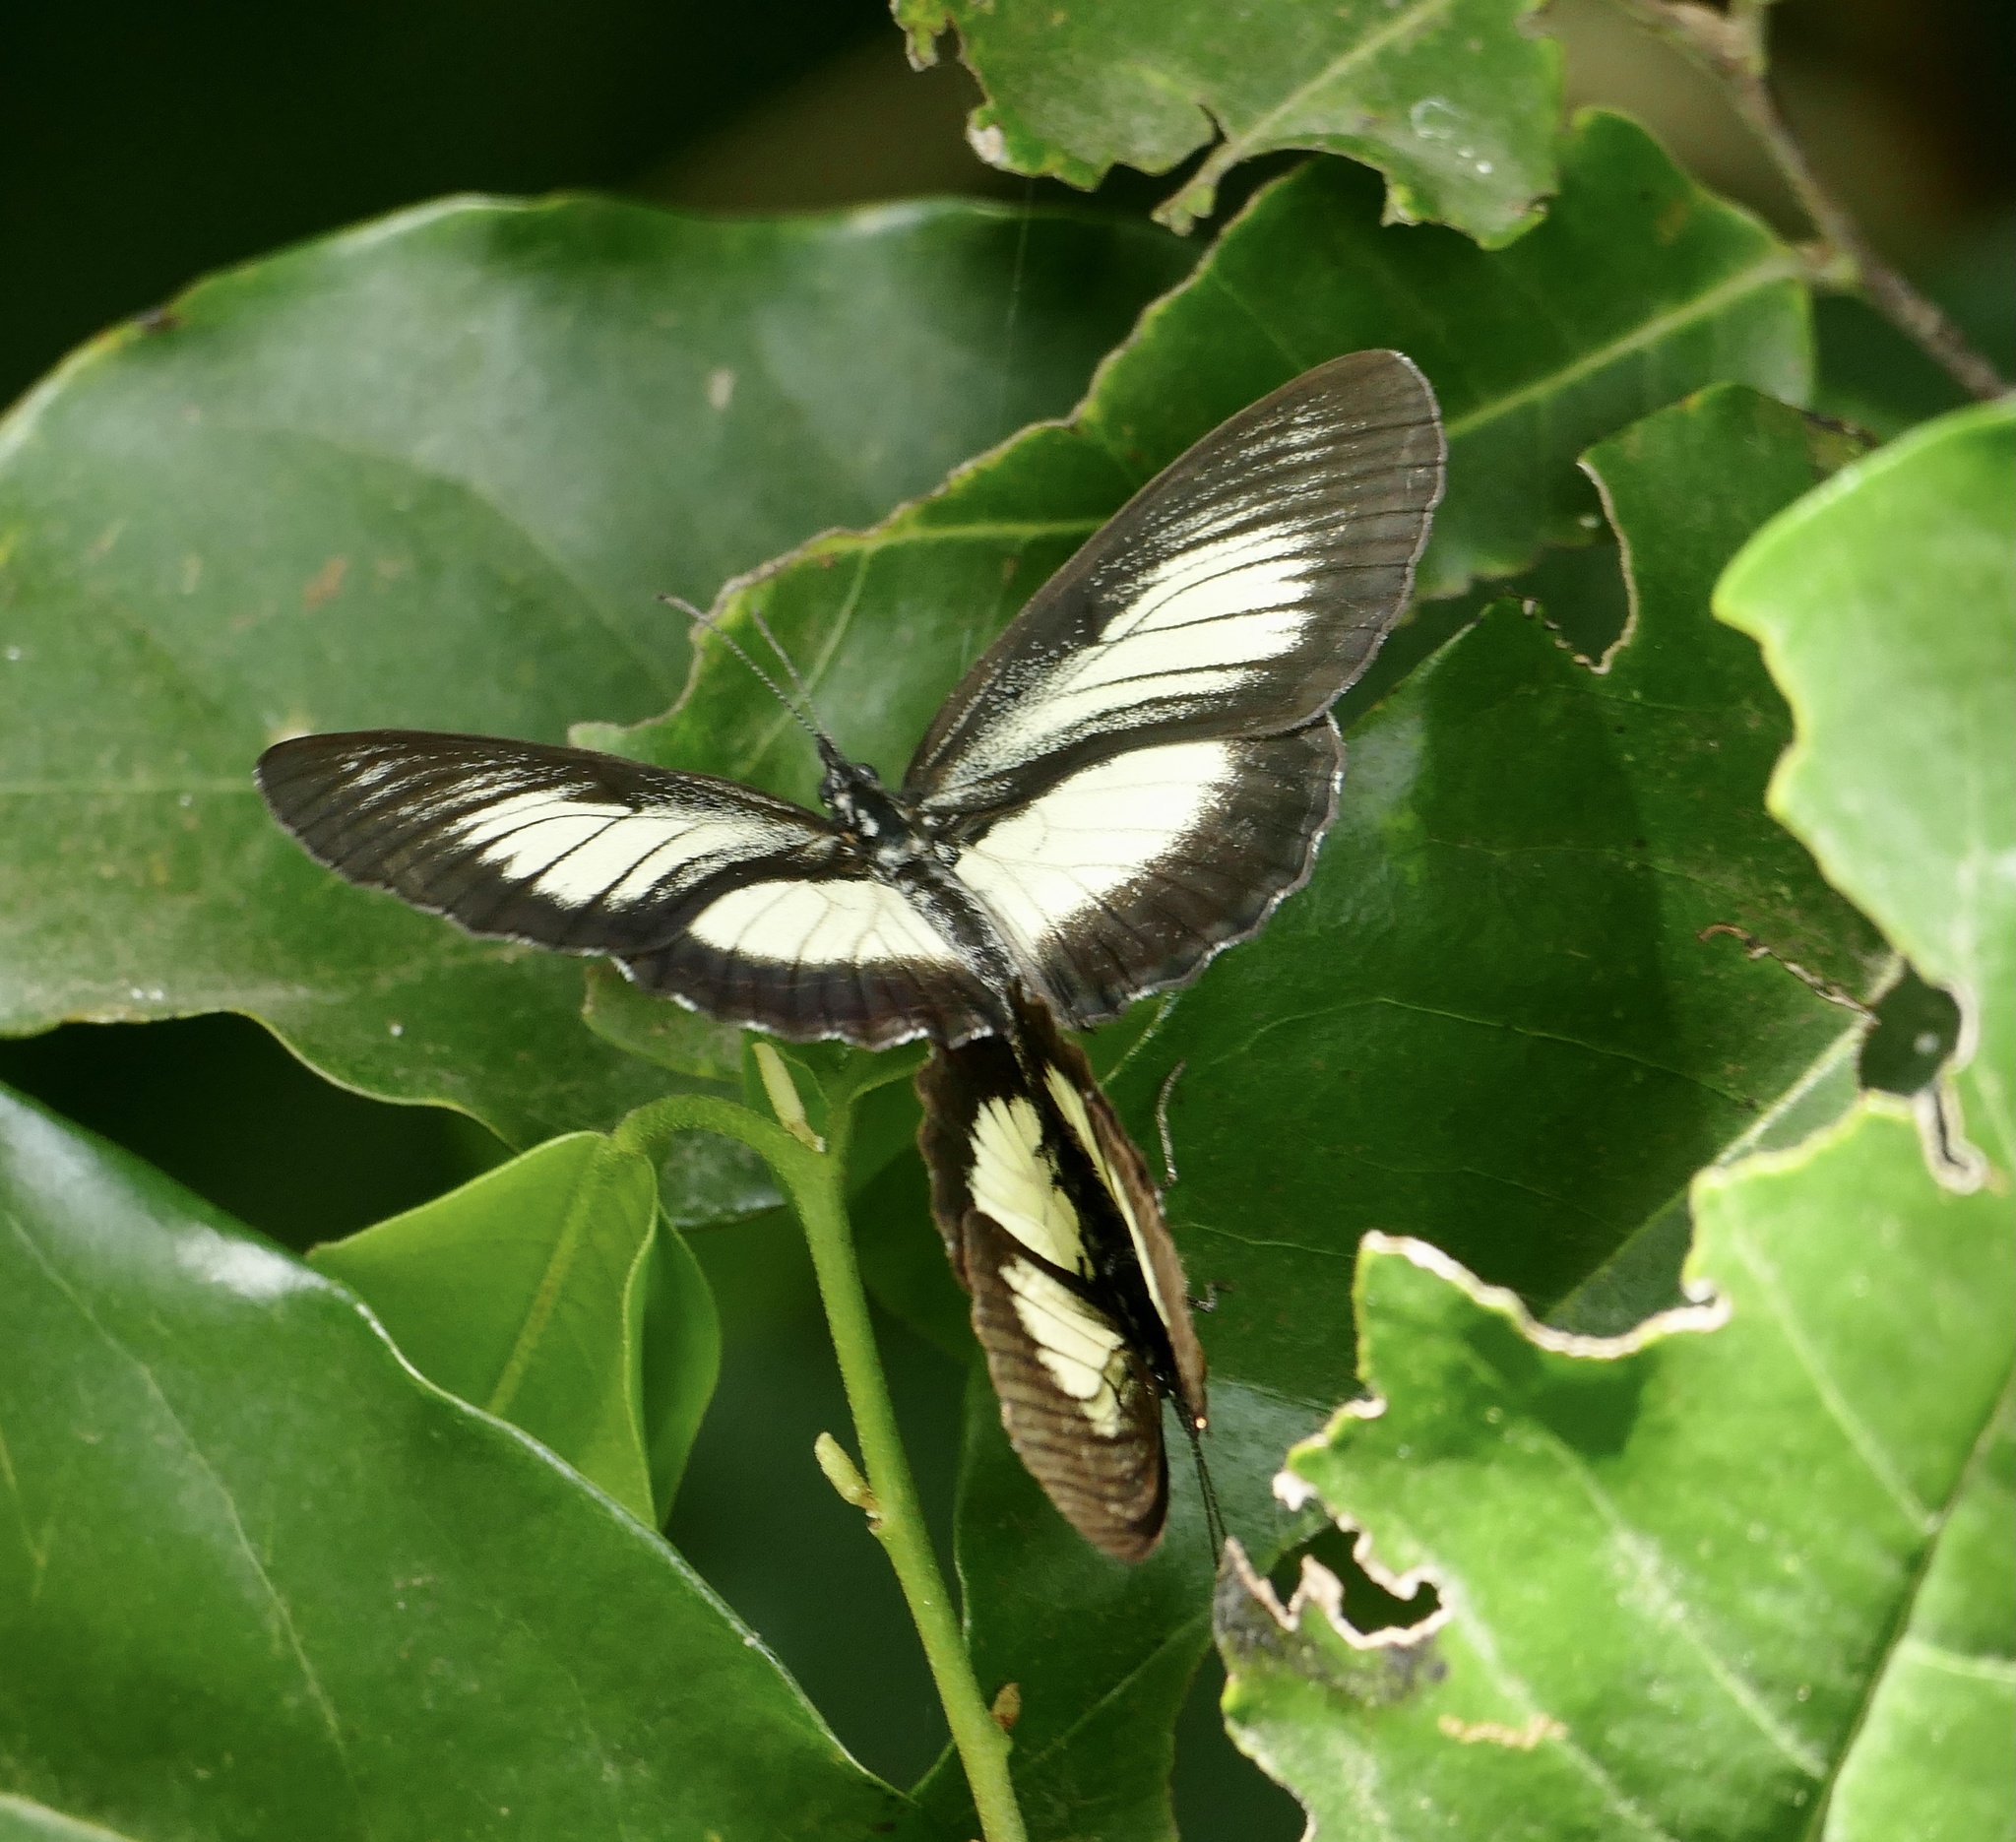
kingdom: Animalia
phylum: Arthropoda
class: Insecta
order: Lepidoptera
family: Nymphalidae
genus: Mesoxantha
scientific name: Mesoxantha ethosea
